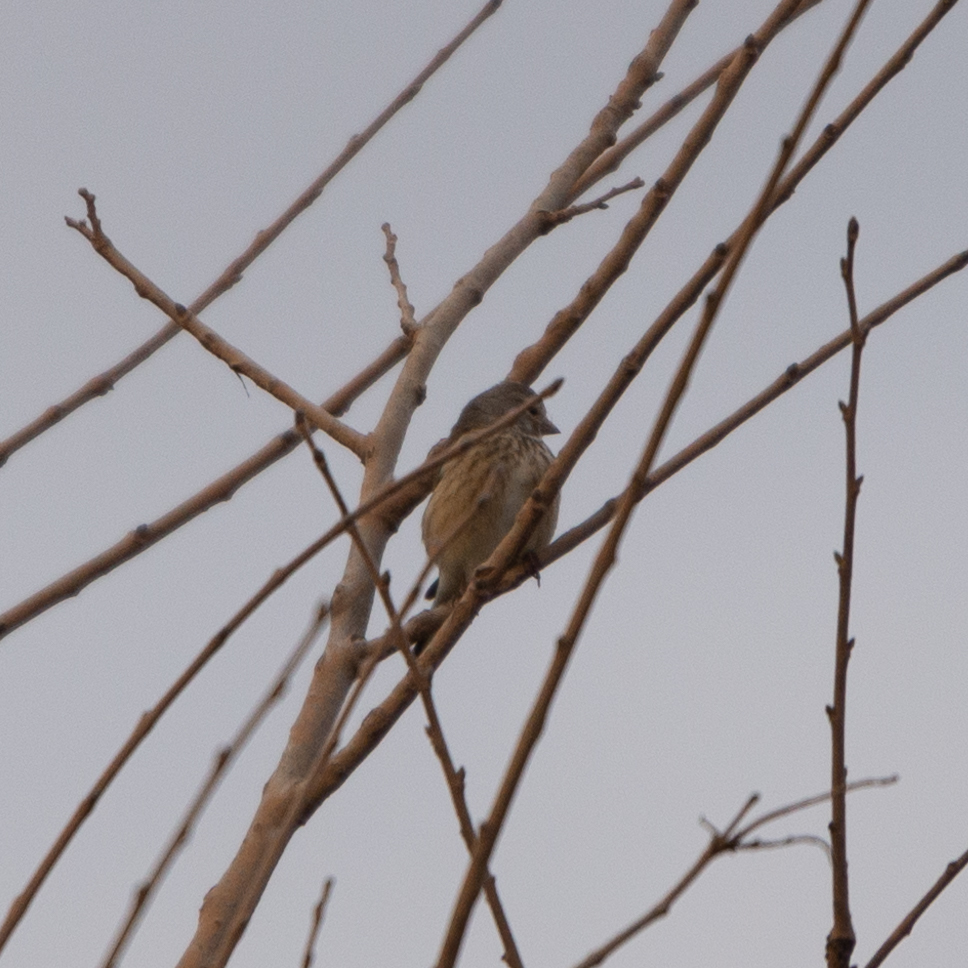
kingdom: Animalia
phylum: Chordata
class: Aves
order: Passeriformes
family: Fringillidae
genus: Linaria
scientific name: Linaria cannabina
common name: Common linnet
